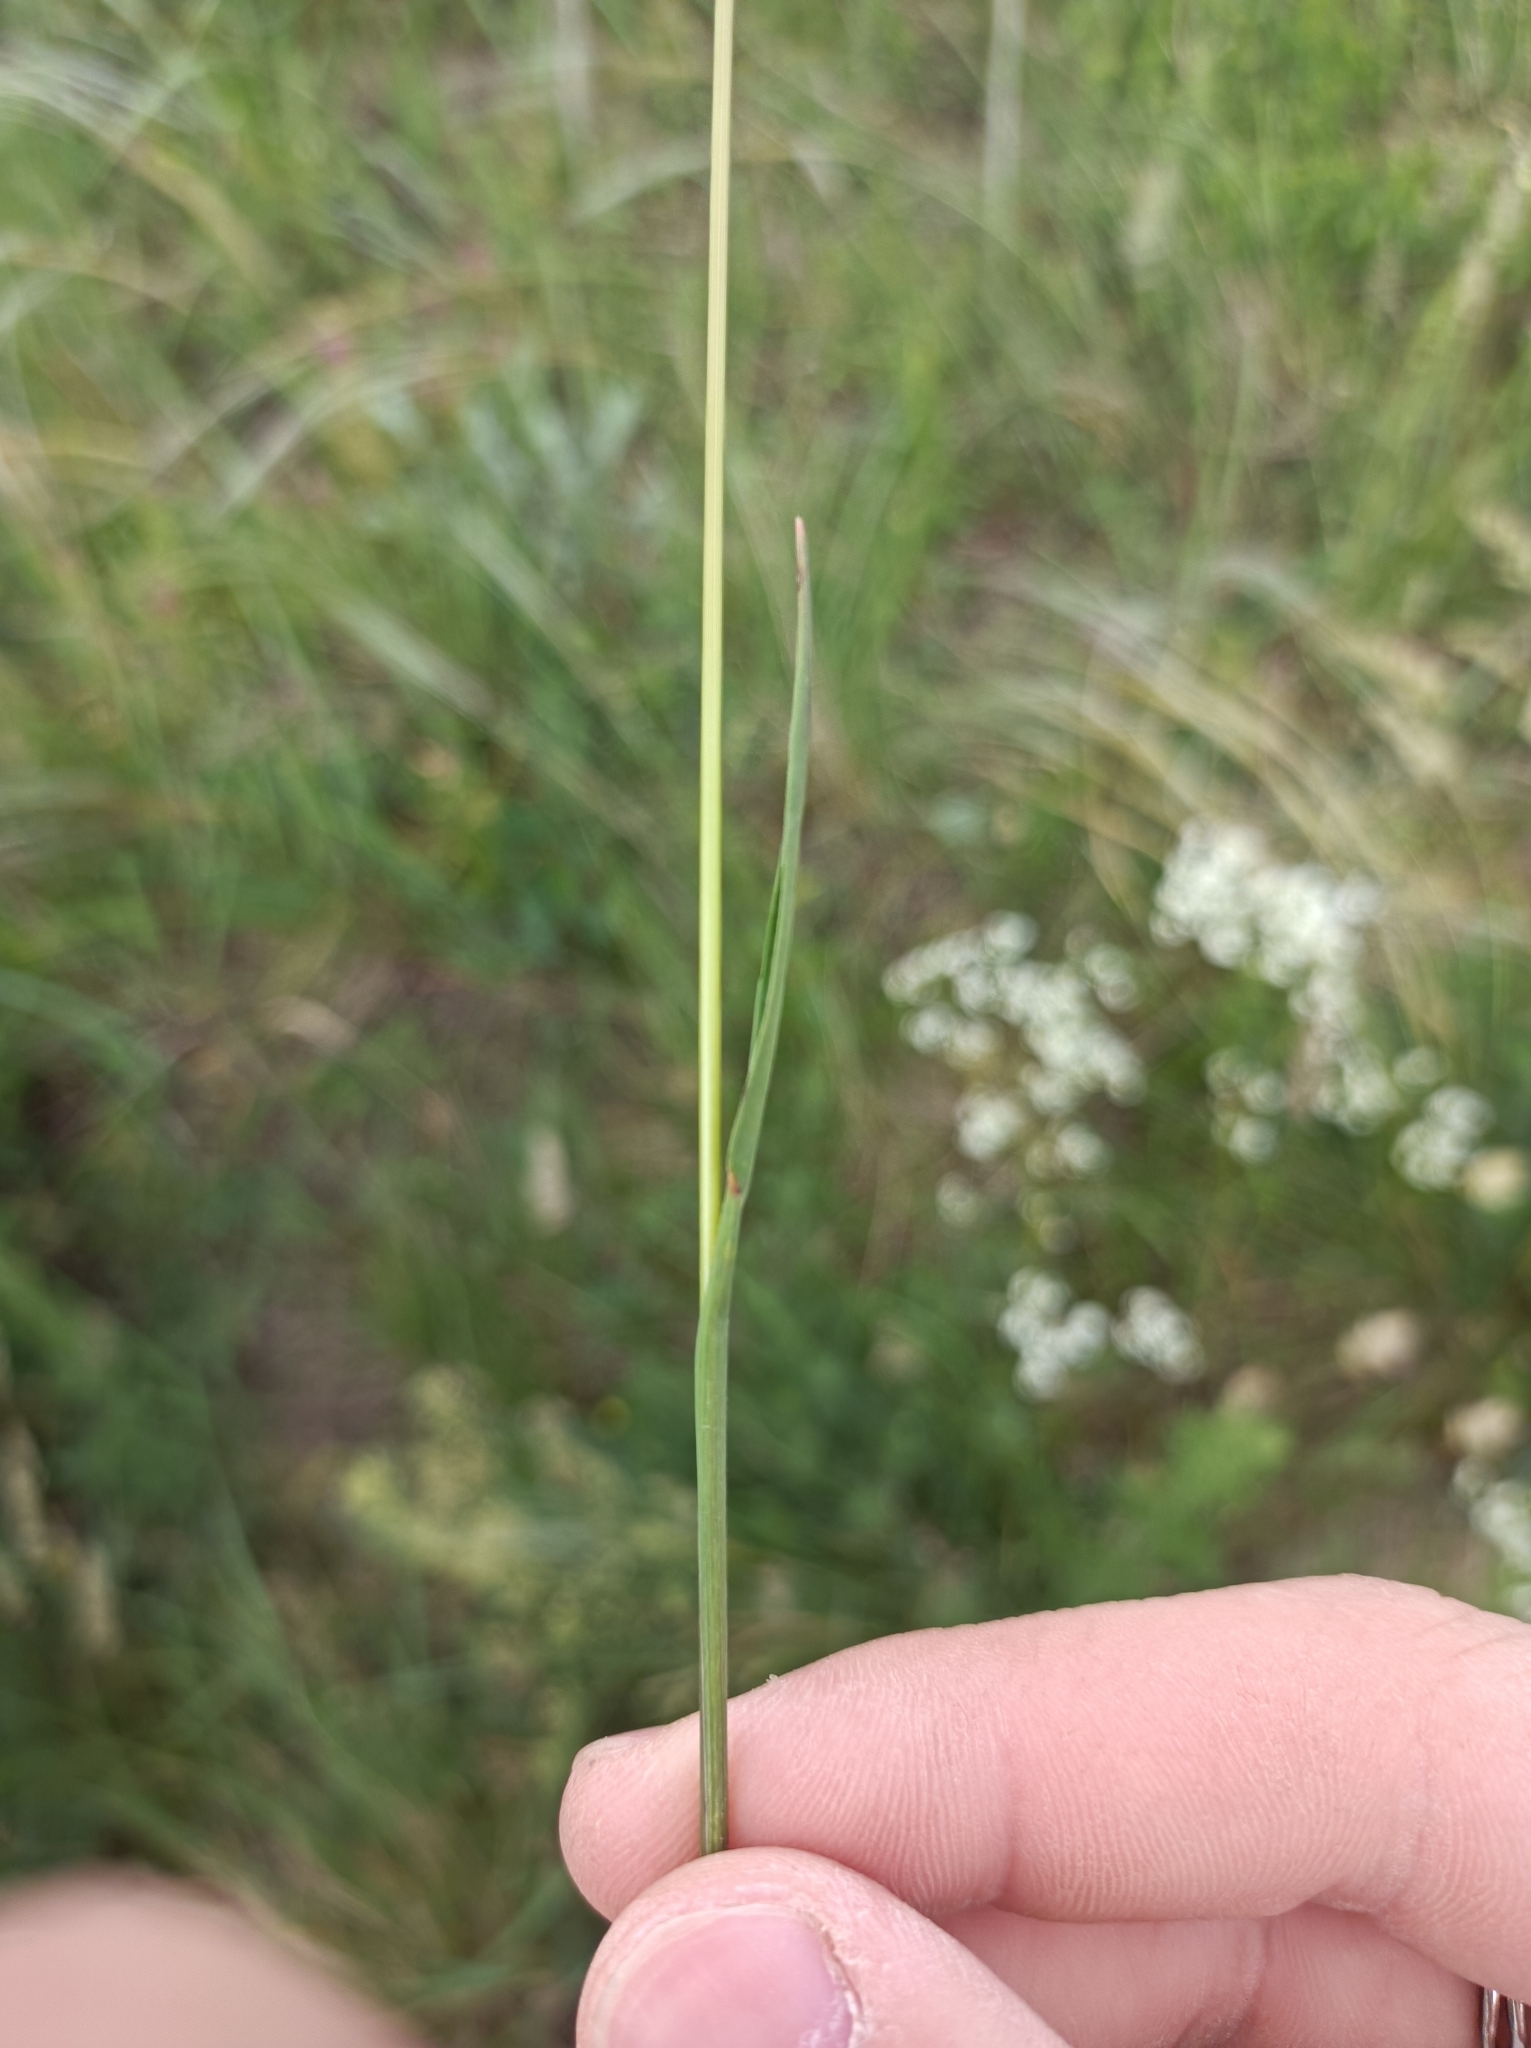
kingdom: Plantae
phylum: Tracheophyta
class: Liliopsida
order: Poales
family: Poaceae
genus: Koeleria
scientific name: Koeleria macrantha
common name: Crested hair-grass
